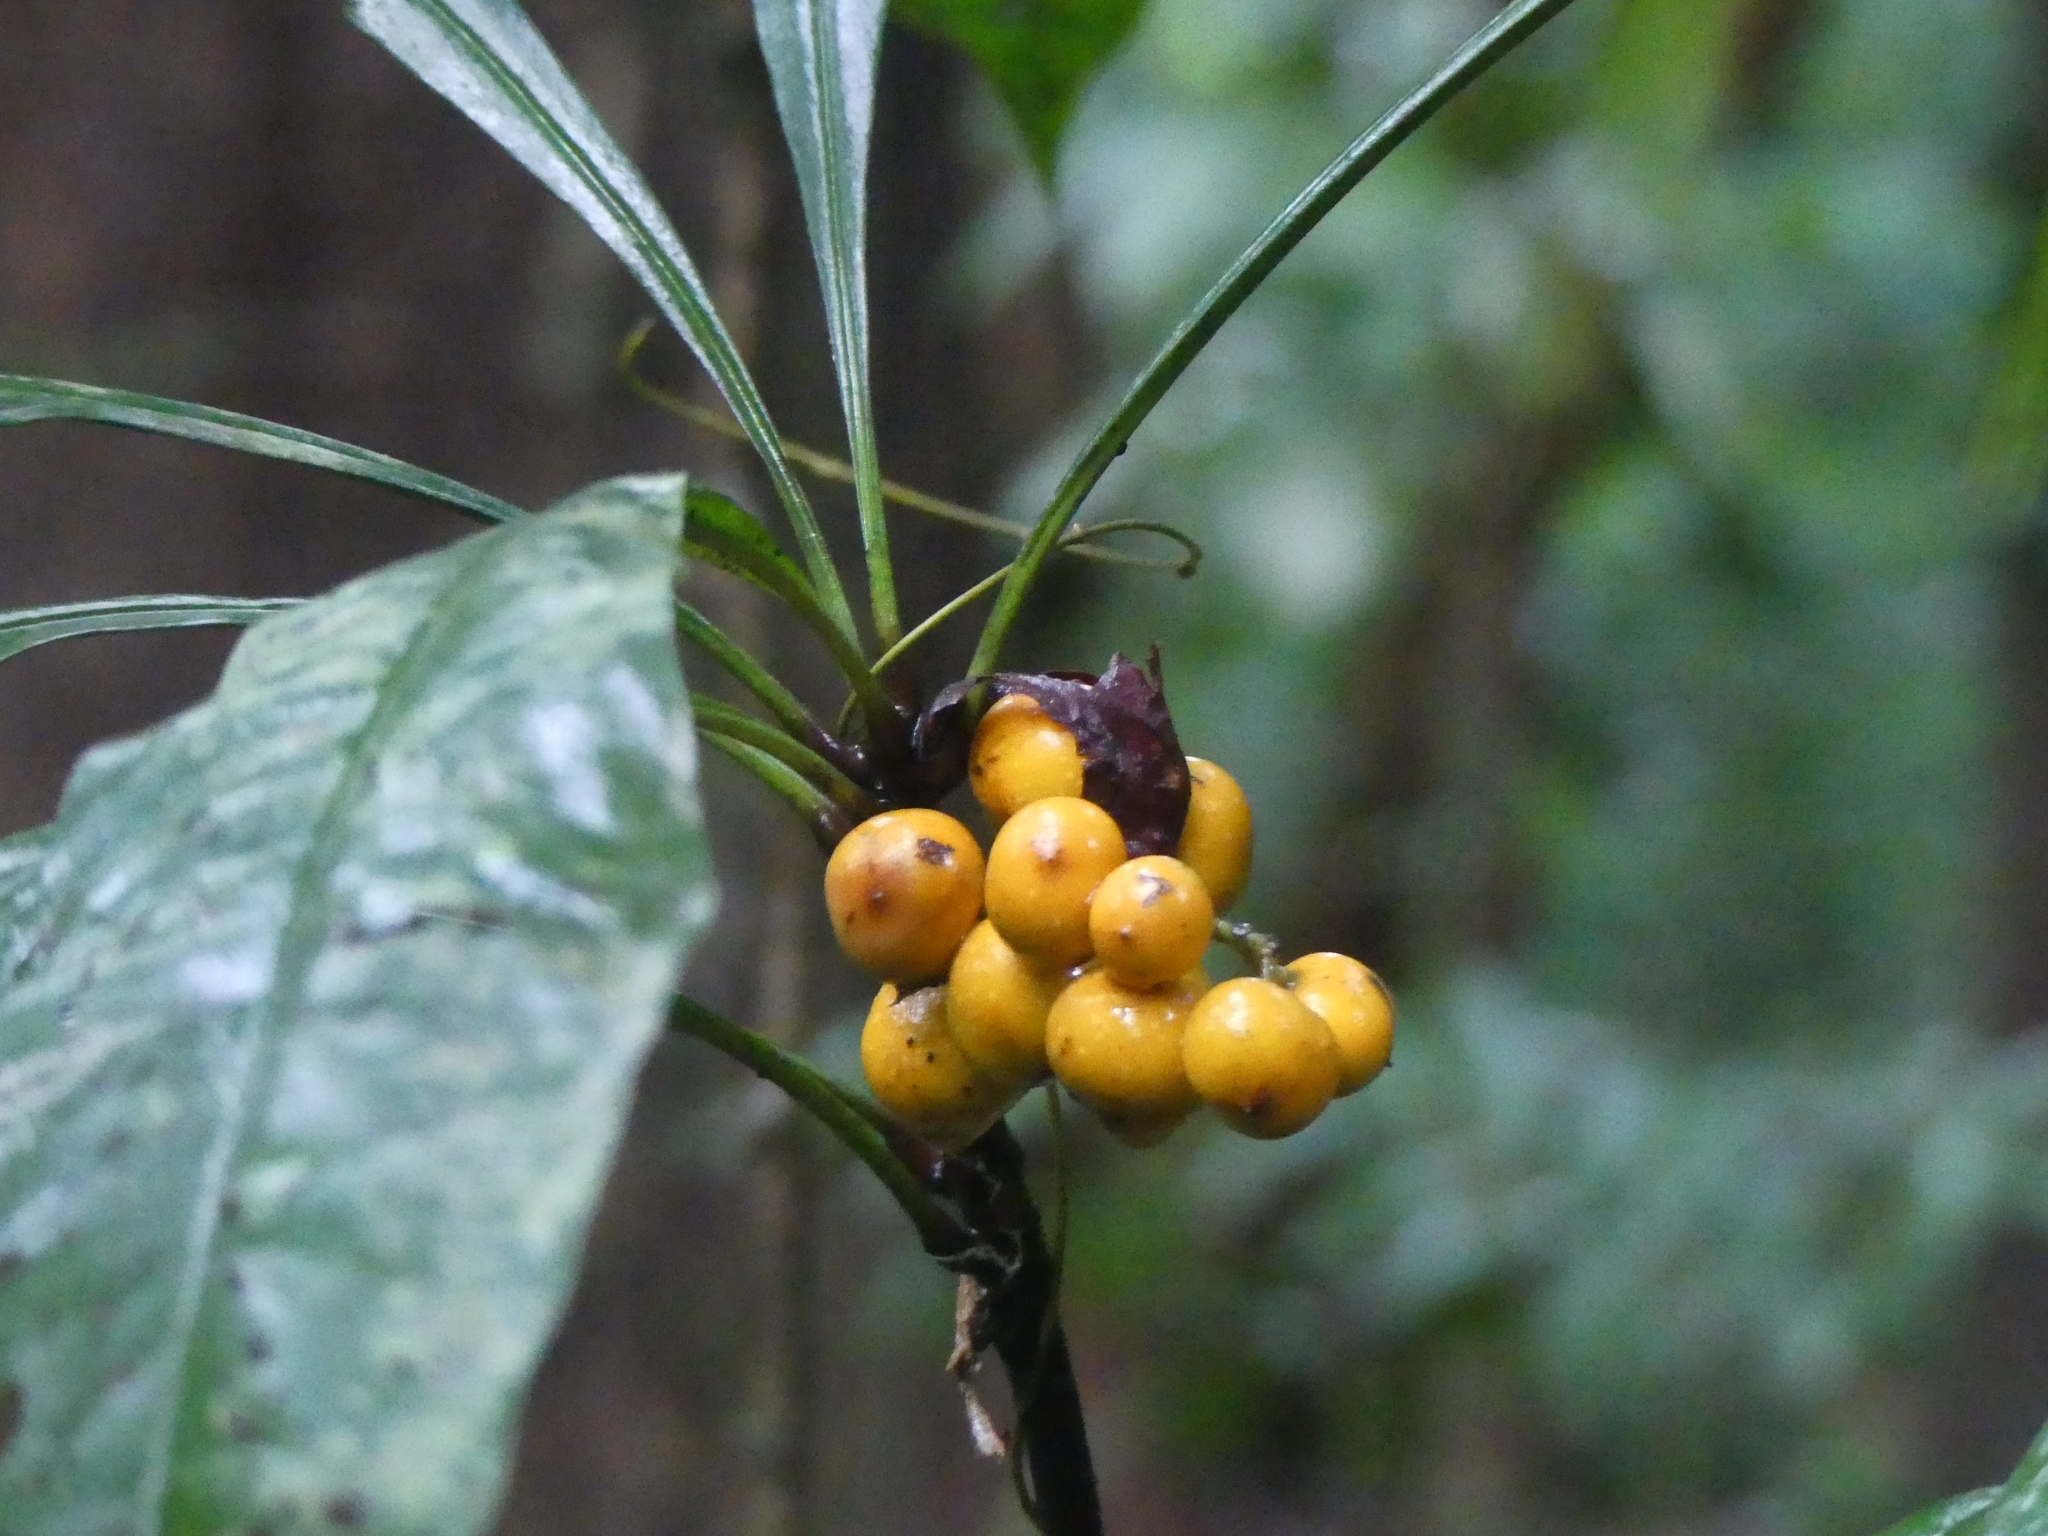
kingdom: Plantae
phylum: Tracheophyta
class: Magnoliopsida
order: Ericales
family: Primulaceae
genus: Clavija
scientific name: Clavija lancifolia
